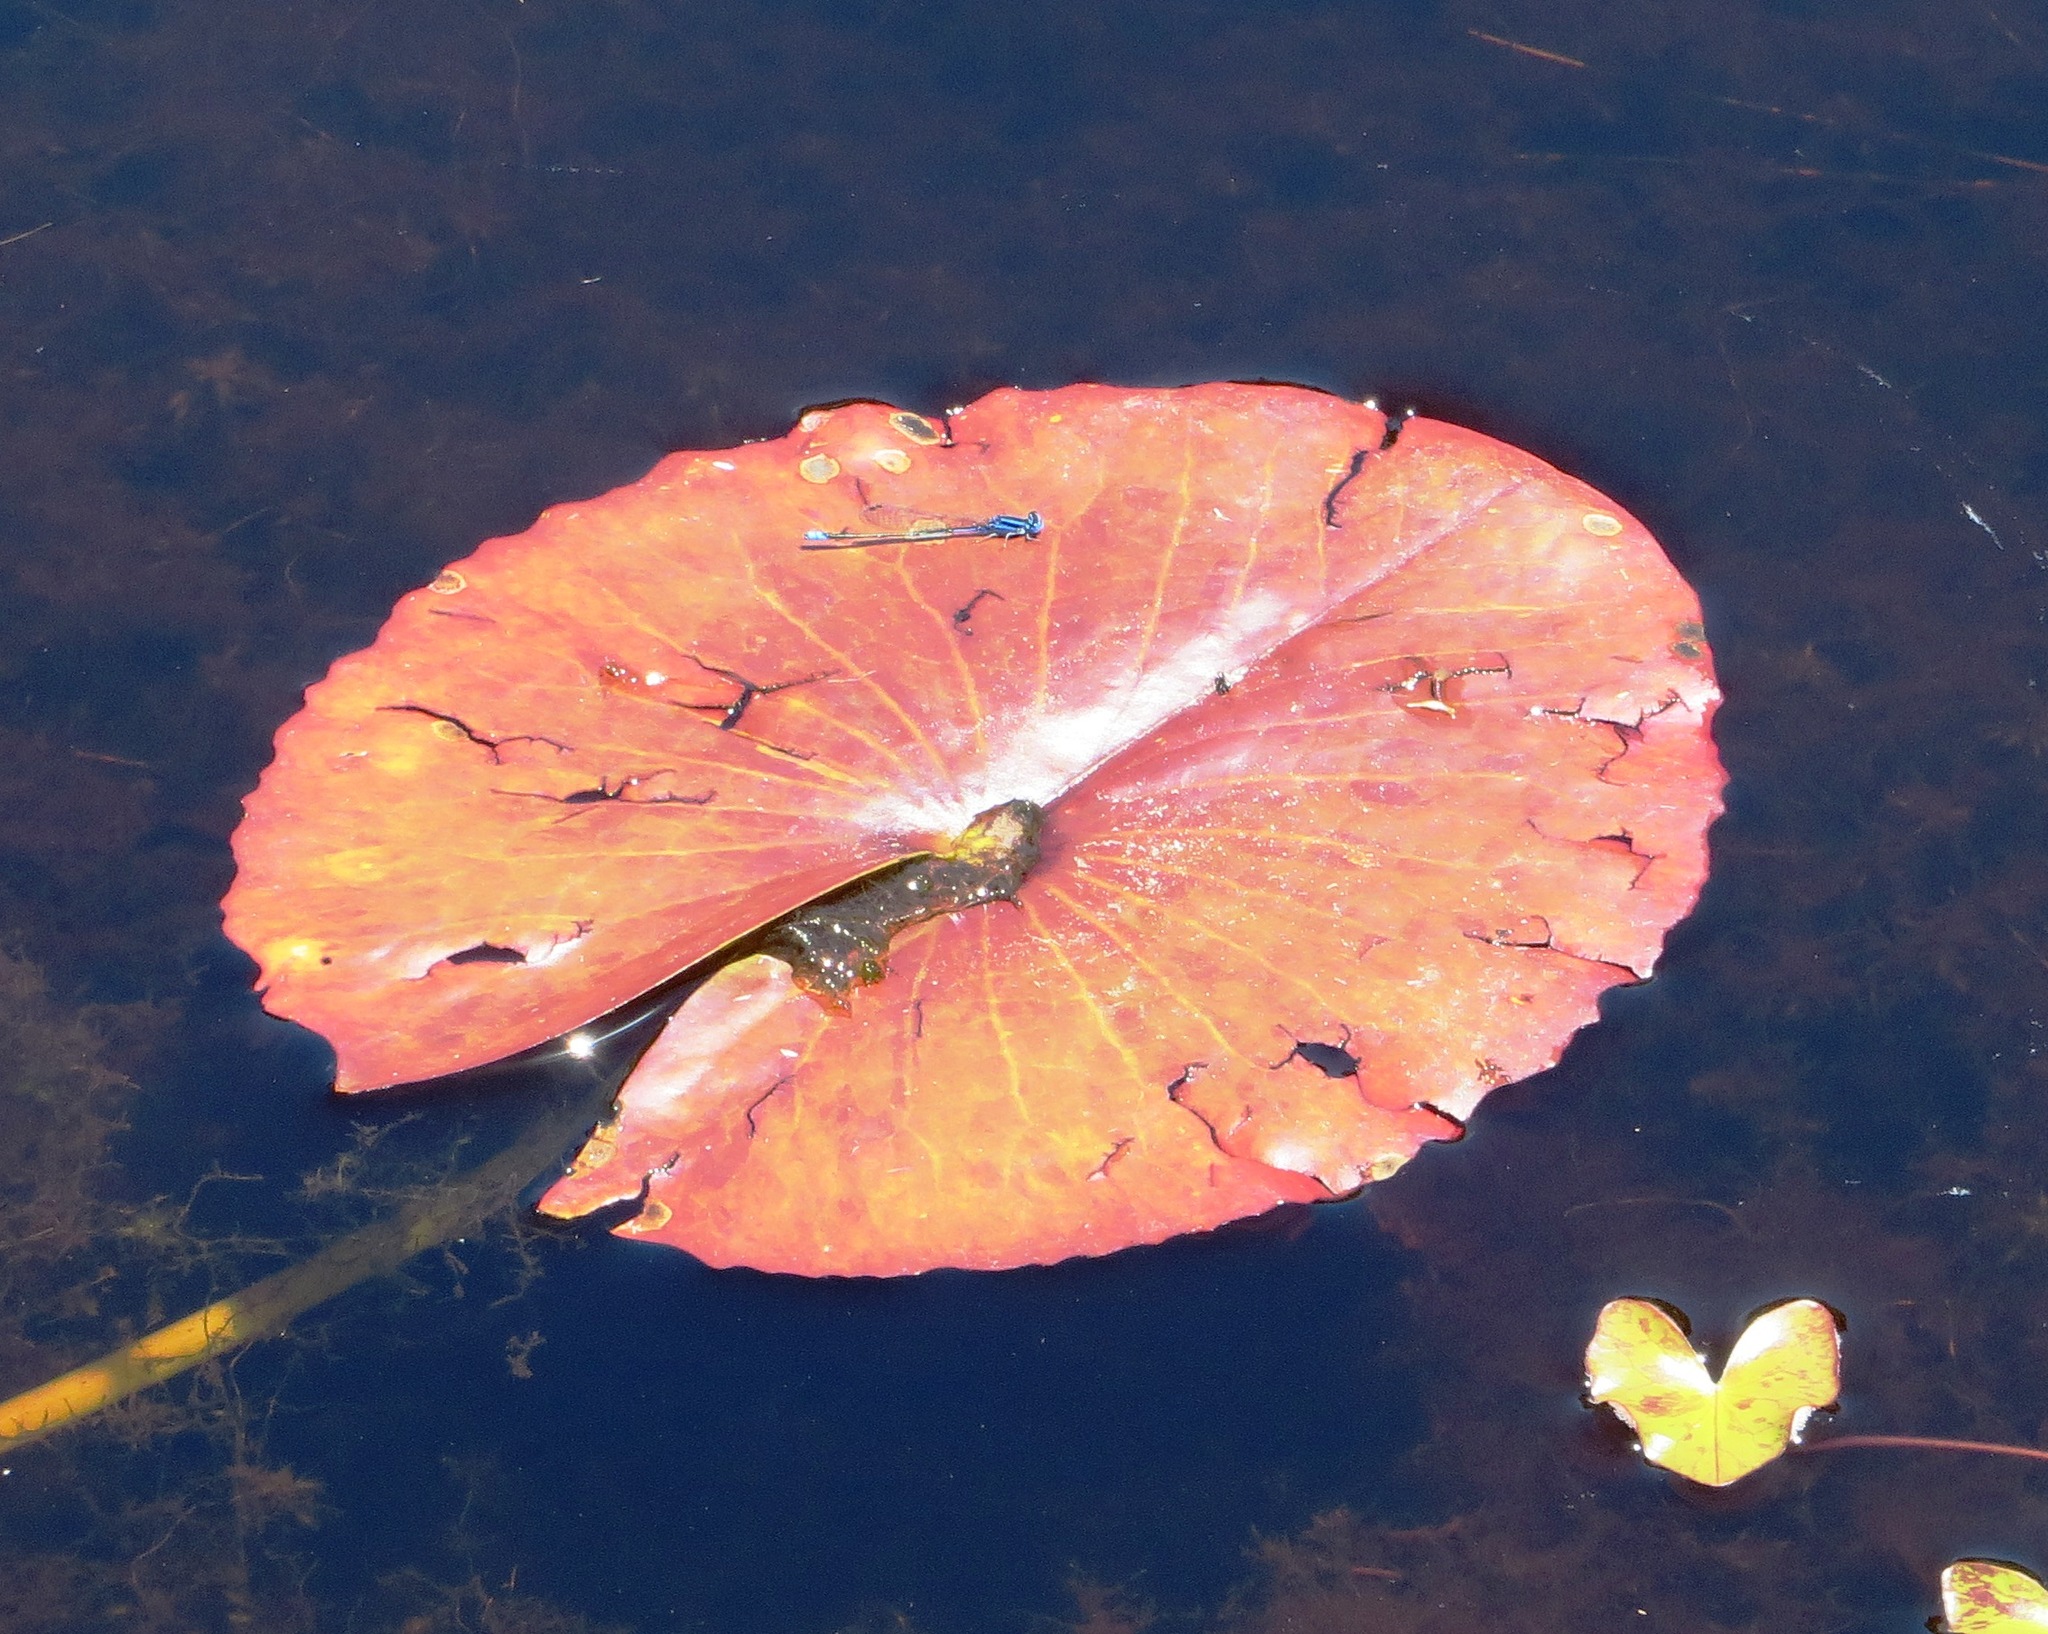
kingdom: Animalia
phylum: Arthropoda
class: Insecta
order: Odonata
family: Coenagrionidae
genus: Azuragrion
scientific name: Azuragrion nigridorsum
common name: Sailing azuret
